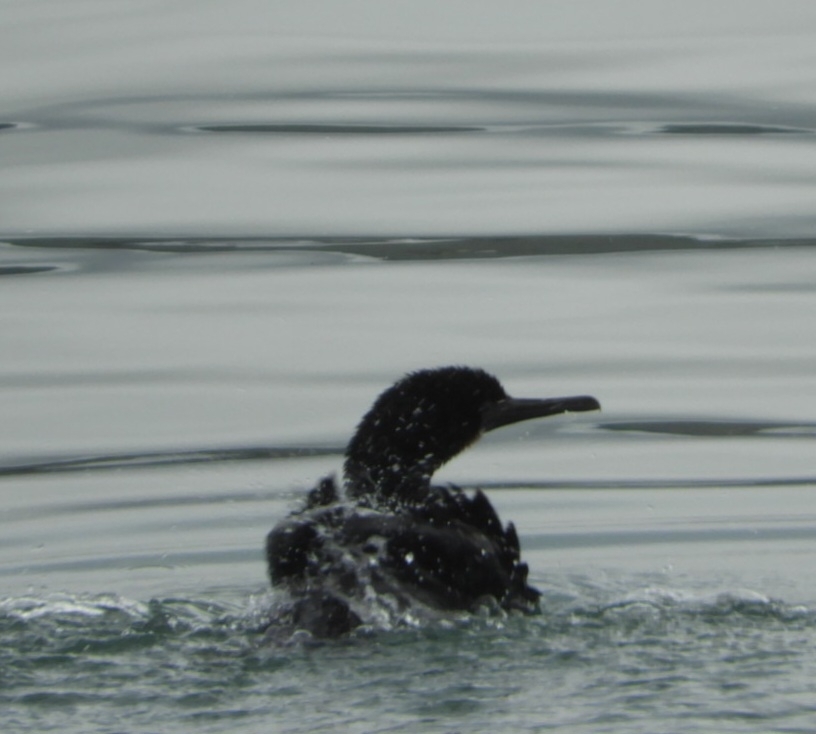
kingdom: Animalia
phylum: Chordata
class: Aves
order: Suliformes
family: Phalacrocoracidae
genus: Urile
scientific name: Urile penicillatus
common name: Brandt's cormorant
